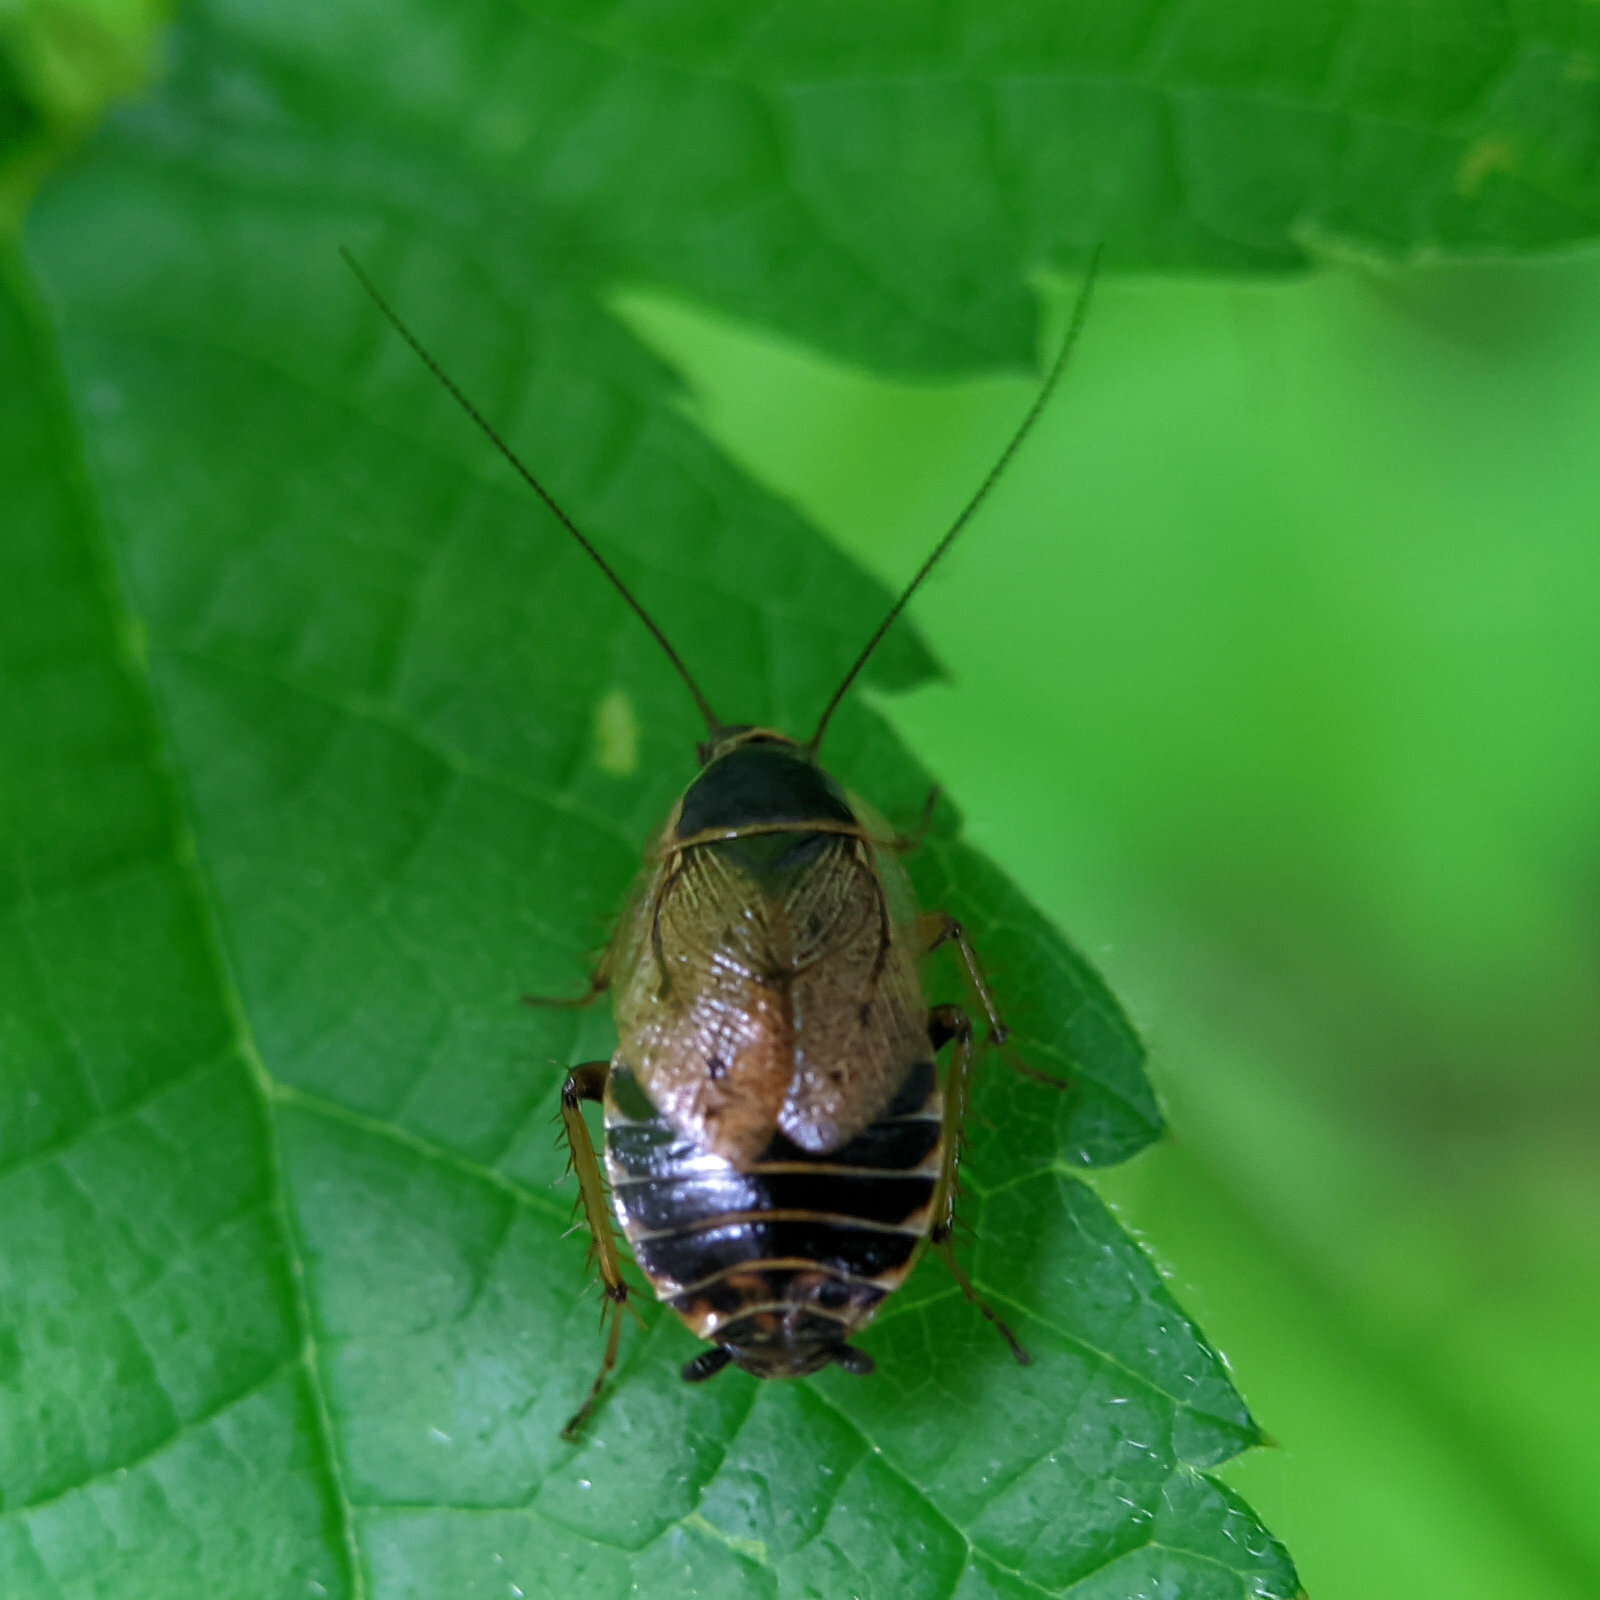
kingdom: Animalia
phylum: Arthropoda
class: Insecta
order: Blattodea
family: Ectobiidae
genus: Ectobius
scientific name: Ectobius sylvestris
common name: Forest cockroach
